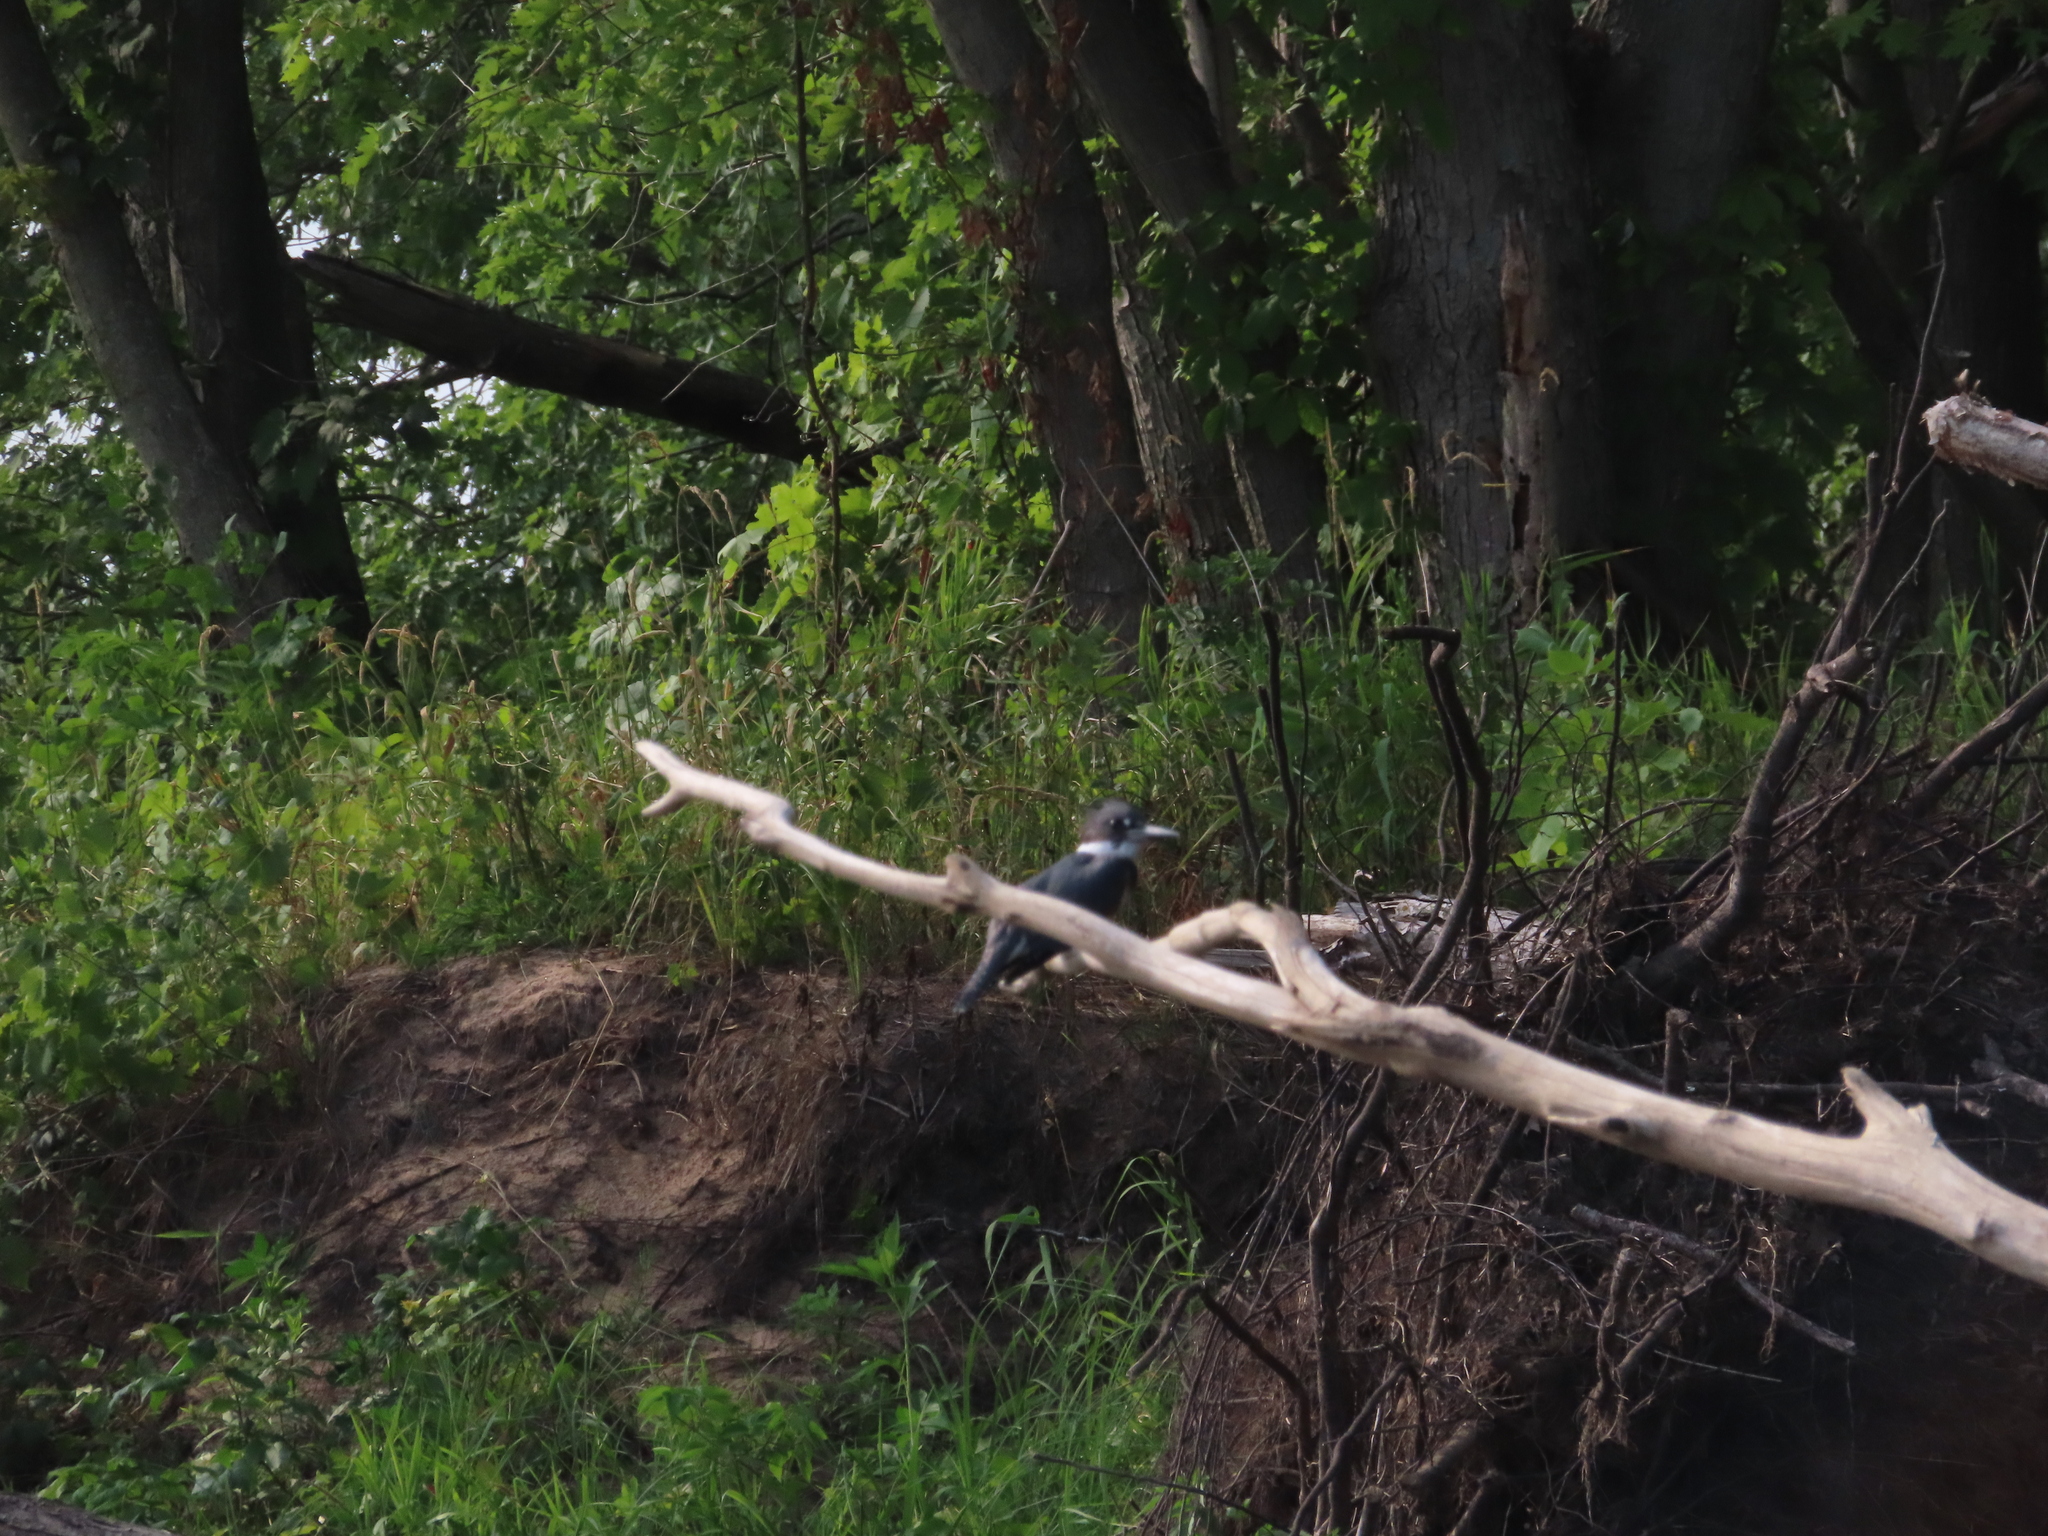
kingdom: Animalia
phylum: Chordata
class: Aves
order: Coraciiformes
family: Alcedinidae
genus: Megaceryle
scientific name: Megaceryle alcyon
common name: Belted kingfisher
